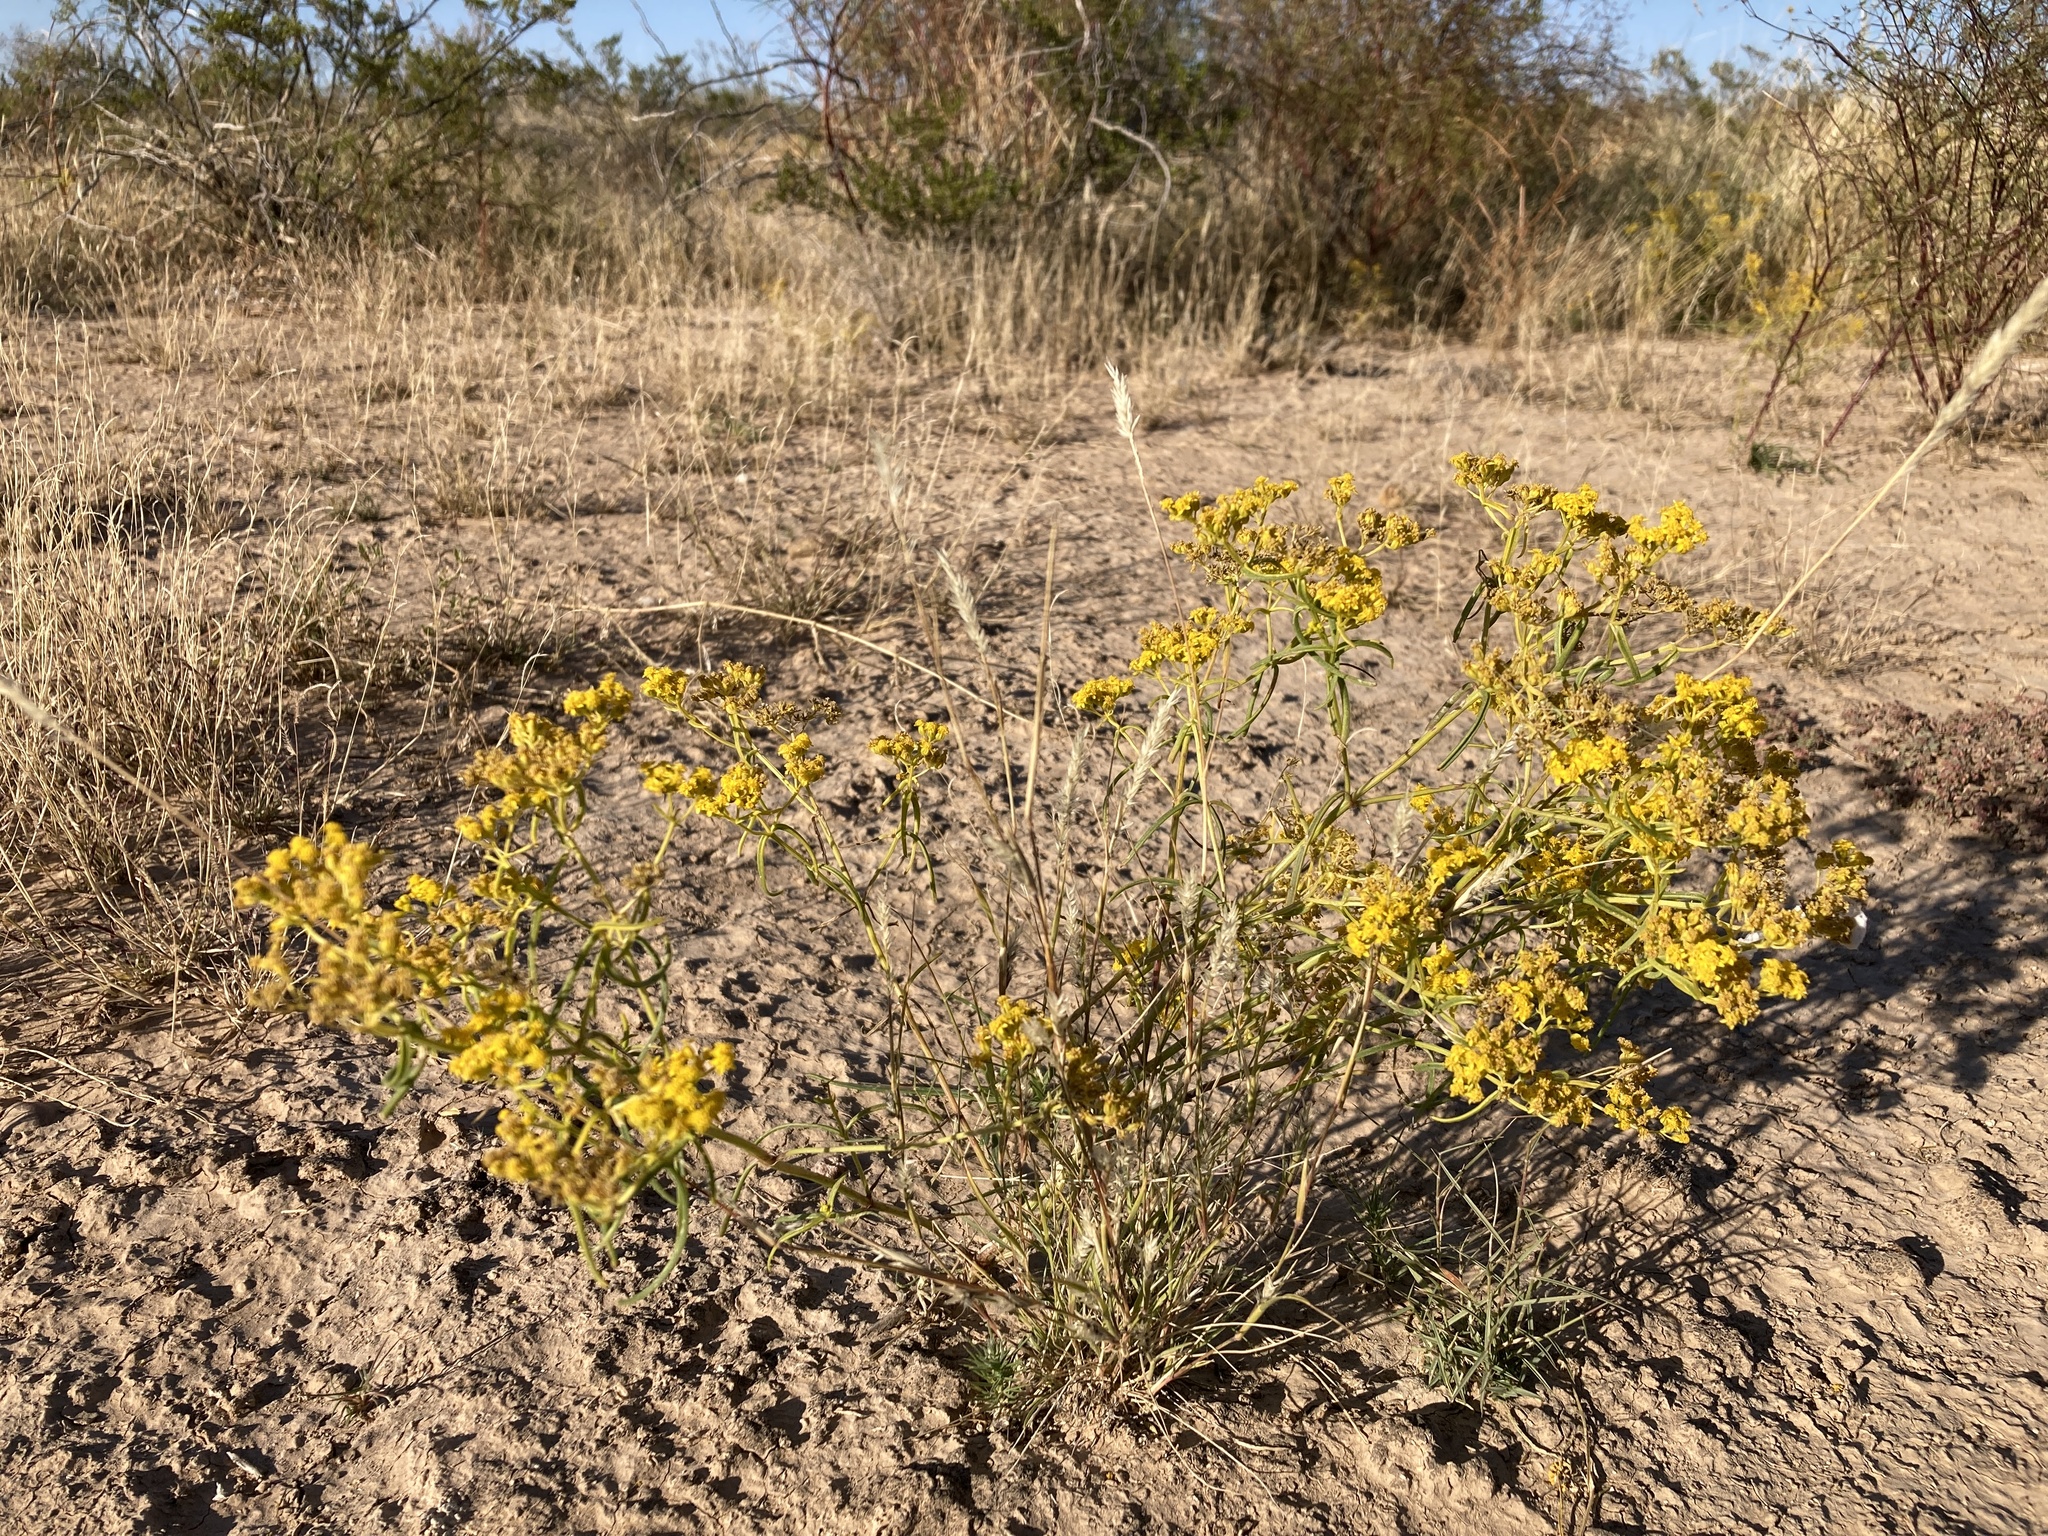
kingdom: Plantae
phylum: Tracheophyta
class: Magnoliopsida
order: Asterales
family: Asteraceae
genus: Sartwellia
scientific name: Sartwellia flaveriae
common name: Sartwellia
